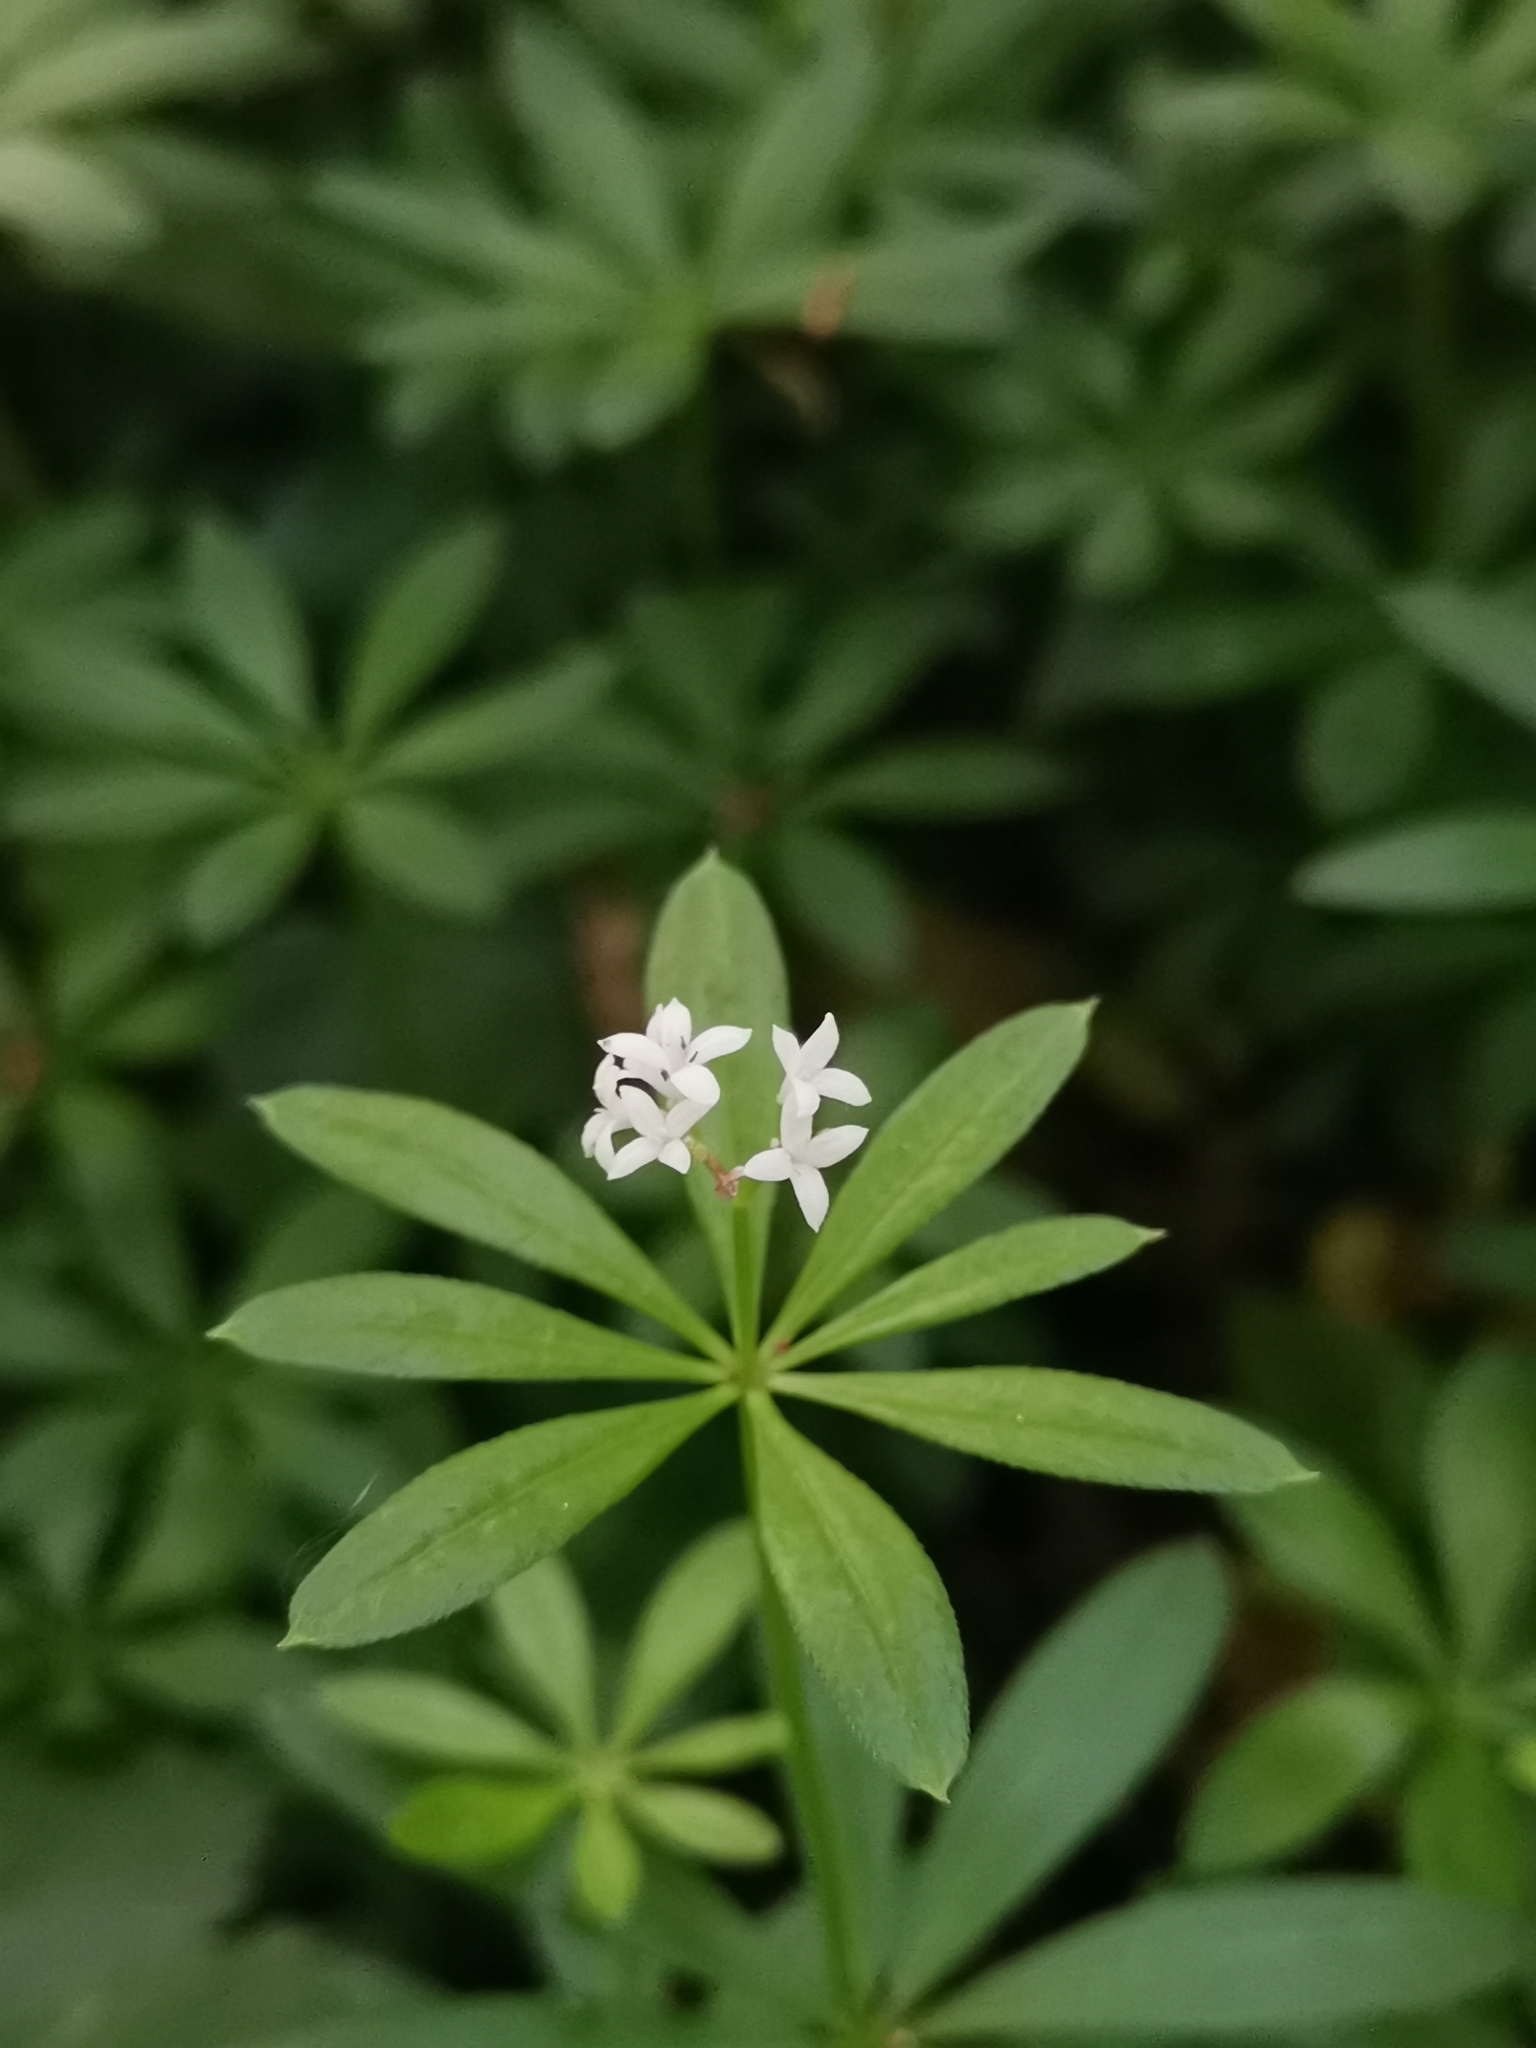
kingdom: Plantae
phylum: Tracheophyta
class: Magnoliopsida
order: Gentianales
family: Rubiaceae
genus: Galium
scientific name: Galium odoratum
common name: Sweet woodruff
